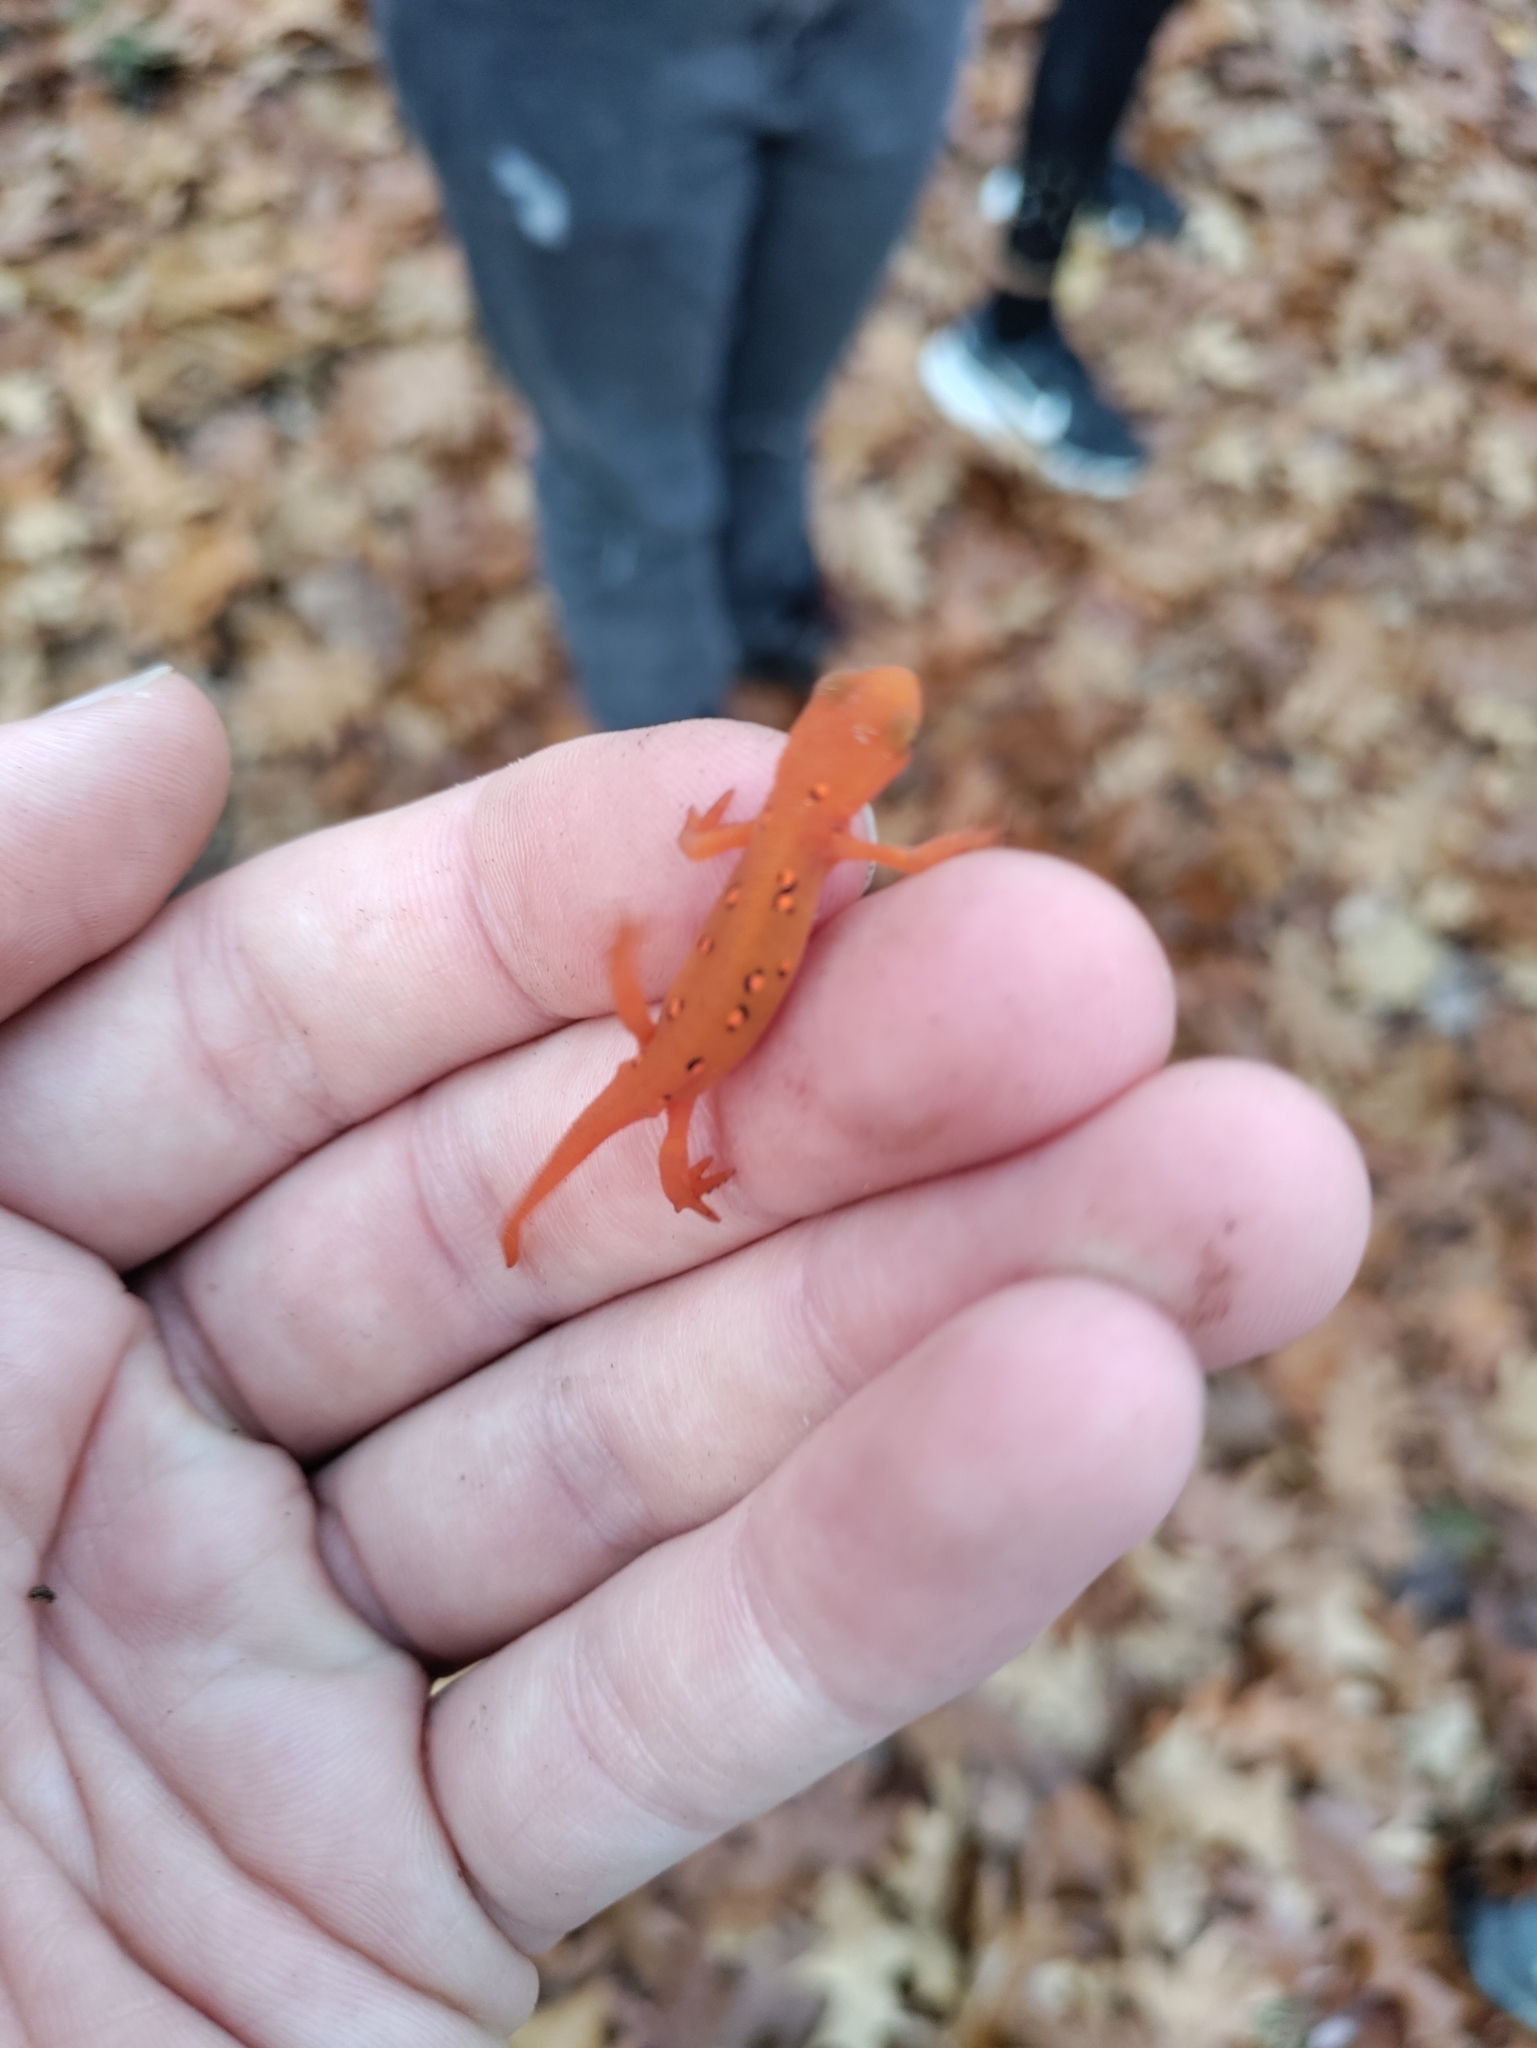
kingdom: Animalia
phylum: Chordata
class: Amphibia
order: Caudata
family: Salamandridae
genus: Notophthalmus
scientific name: Notophthalmus viridescens
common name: Eastern newt
